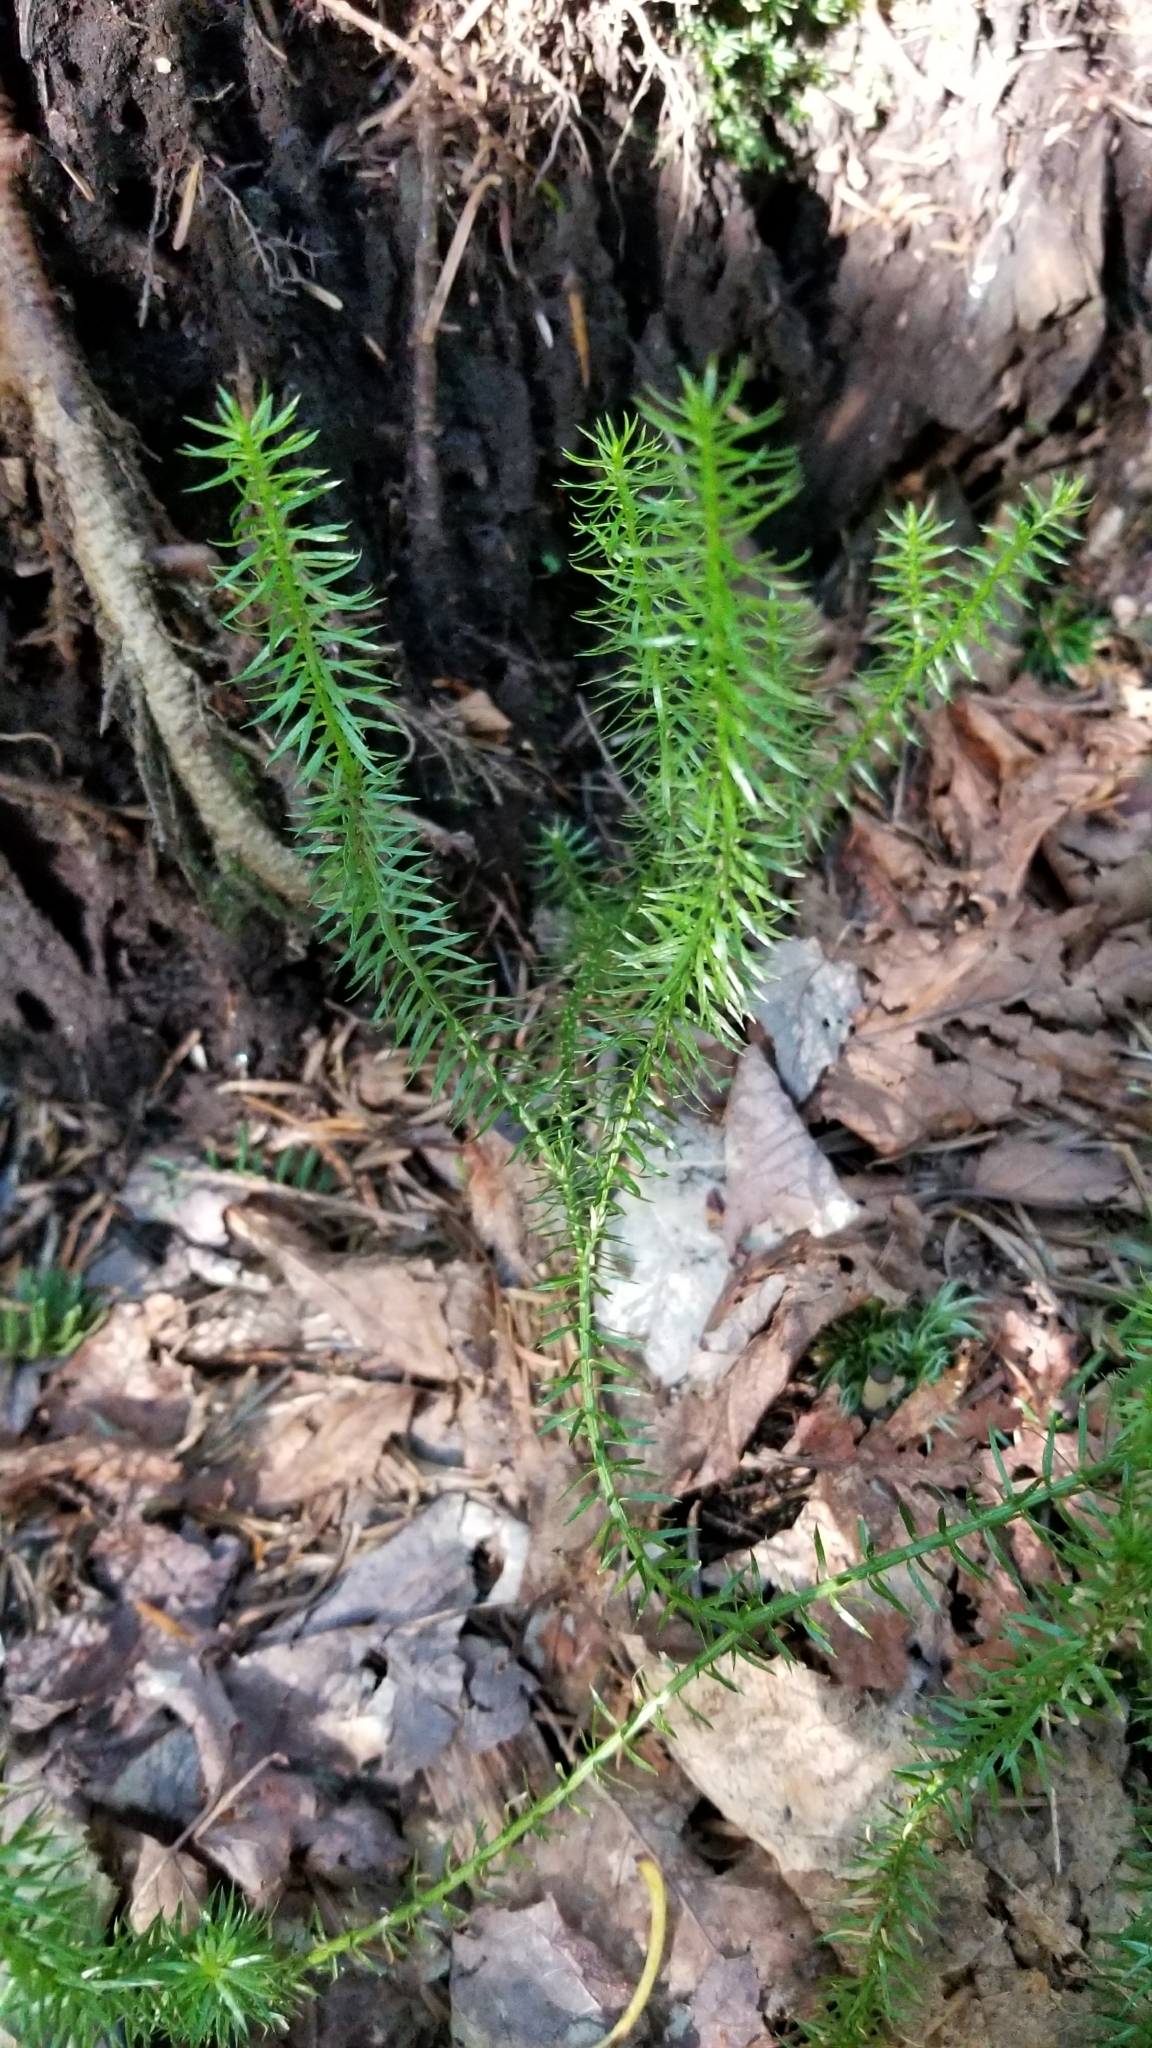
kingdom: Plantae
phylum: Tracheophyta
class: Lycopodiopsida
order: Lycopodiales
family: Lycopodiaceae
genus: Spinulum
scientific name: Spinulum annotinum
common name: Interrupted club-moss
